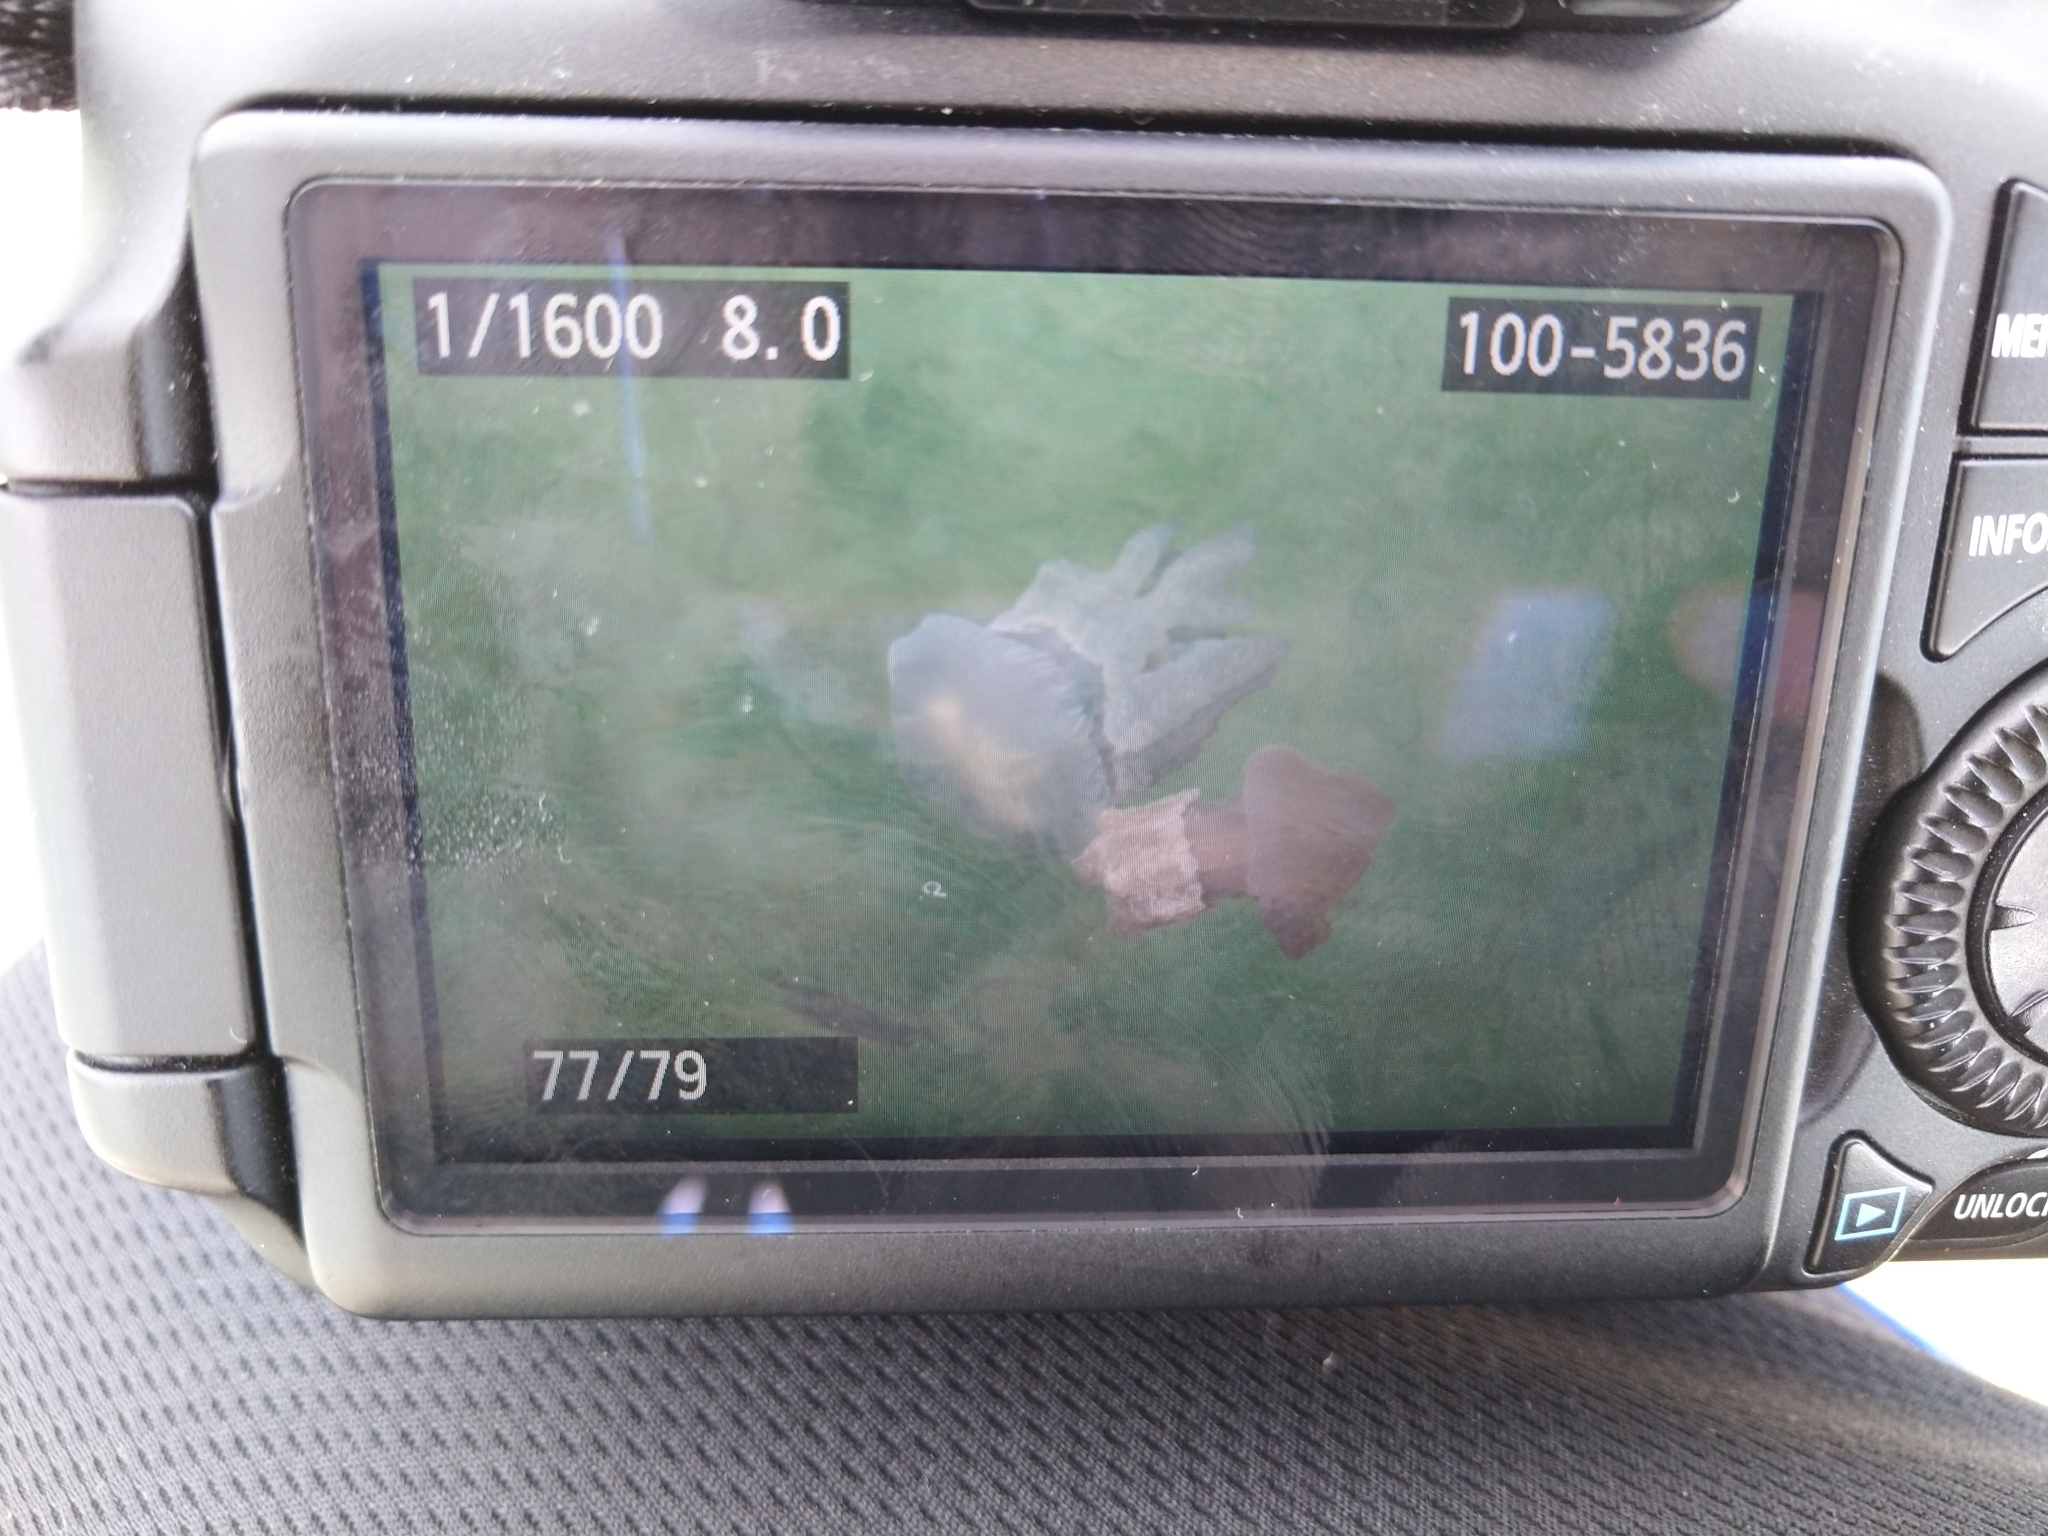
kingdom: Animalia
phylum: Cnidaria
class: Scyphozoa
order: Rhizostomeae
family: Catostylidae
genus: Catostylus
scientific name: Catostylus mosaicus
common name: Blue blubber
